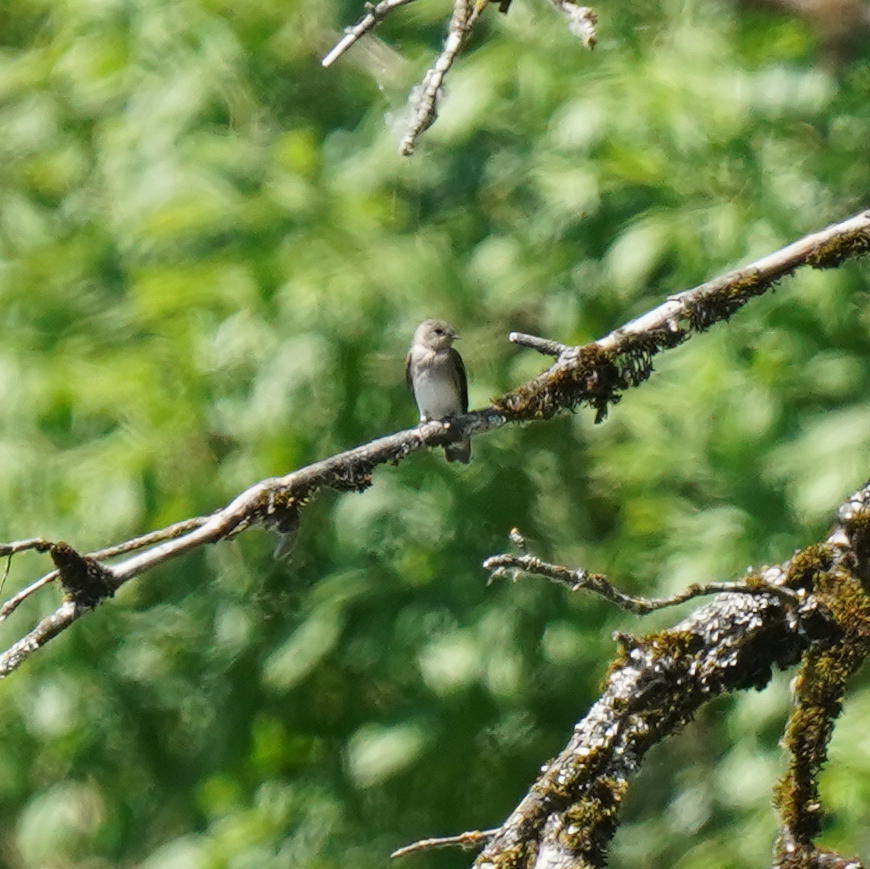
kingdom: Animalia
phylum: Chordata
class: Aves
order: Passeriformes
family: Hirundinidae
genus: Stelgidopteryx
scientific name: Stelgidopteryx serripennis
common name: Northern rough-winged swallow
